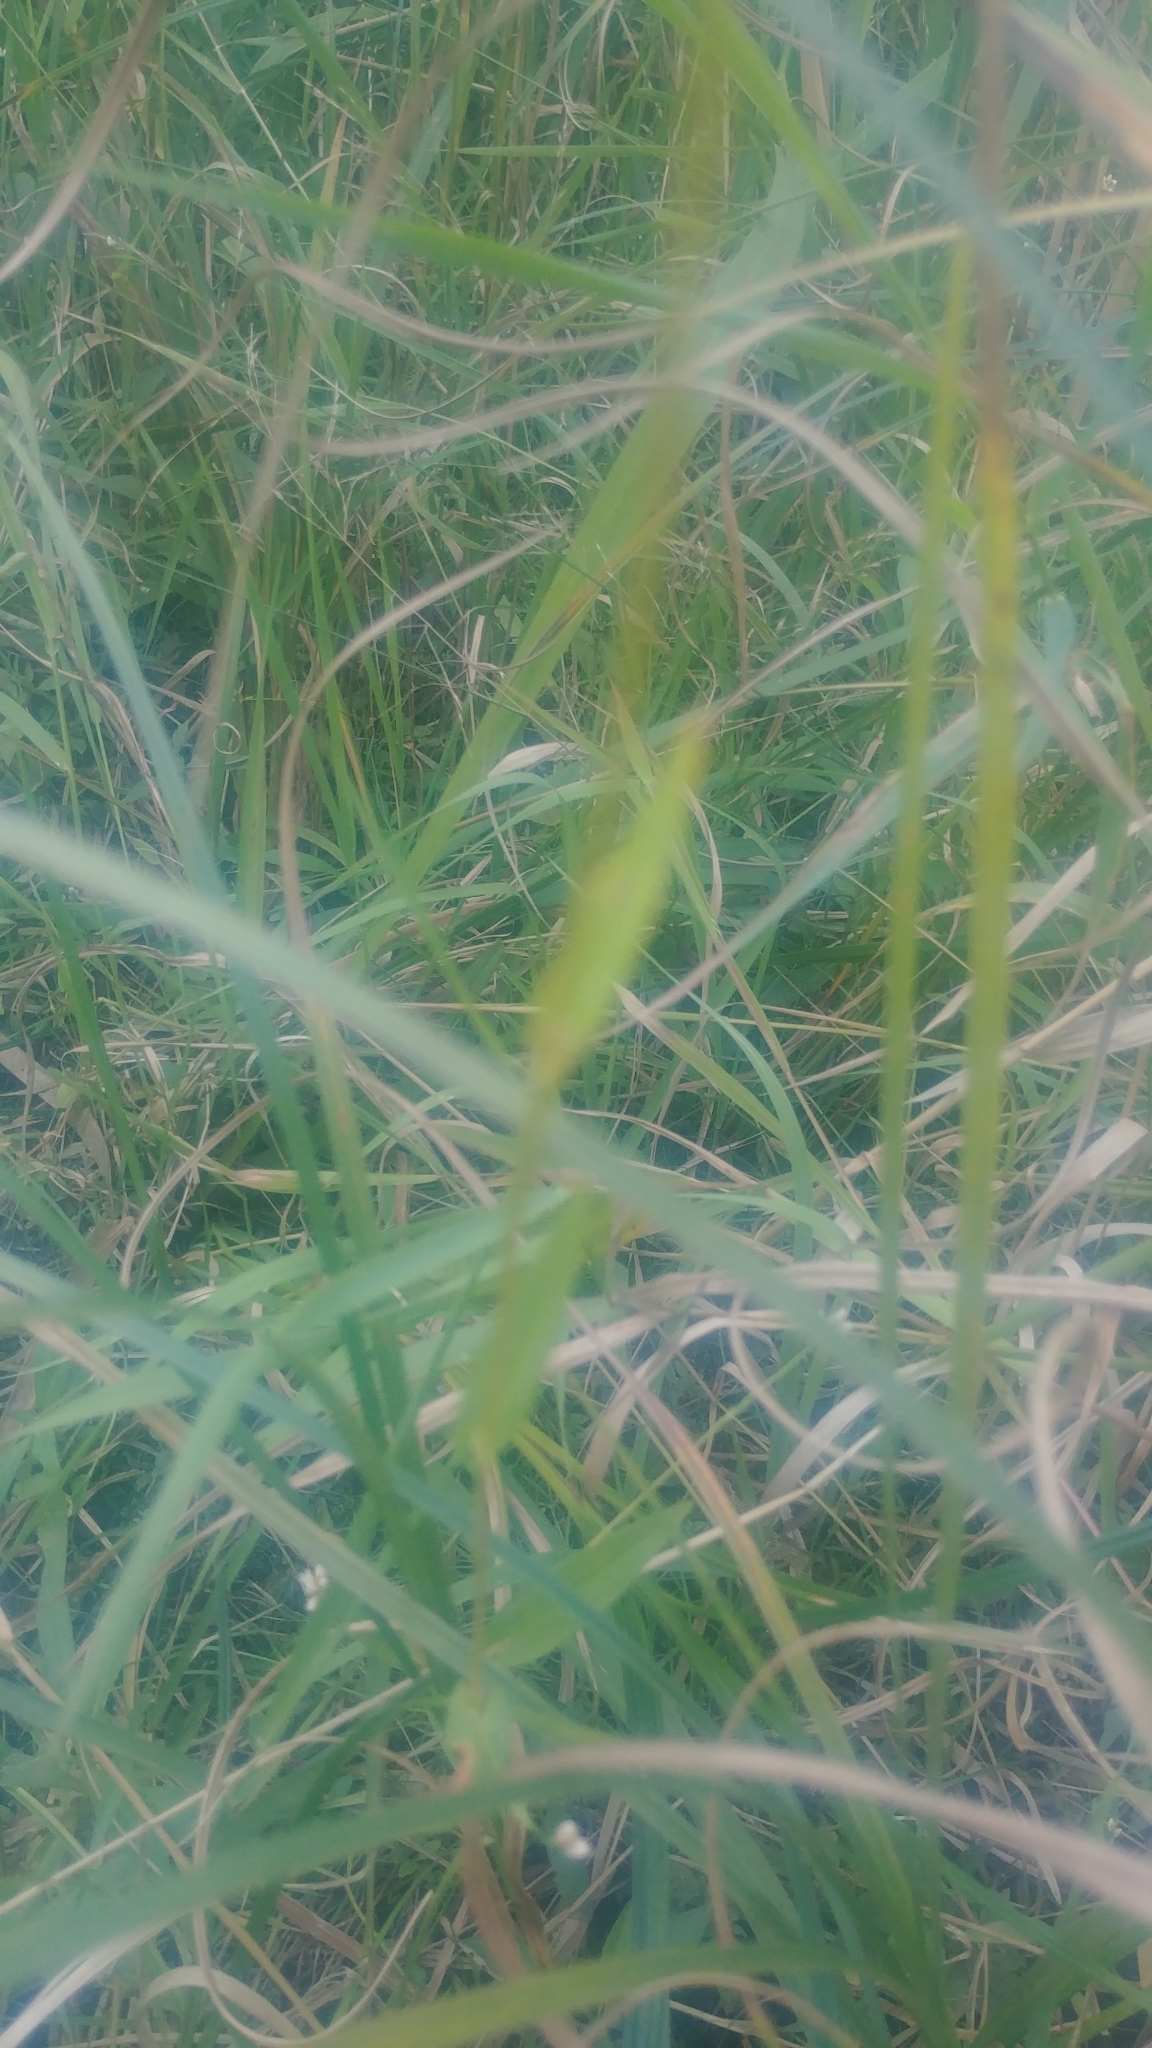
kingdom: Plantae
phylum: Tracheophyta
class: Magnoliopsida
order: Caryophyllales
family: Polygonaceae
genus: Persicaria
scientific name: Persicaria sagittata
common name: American tearthumb
